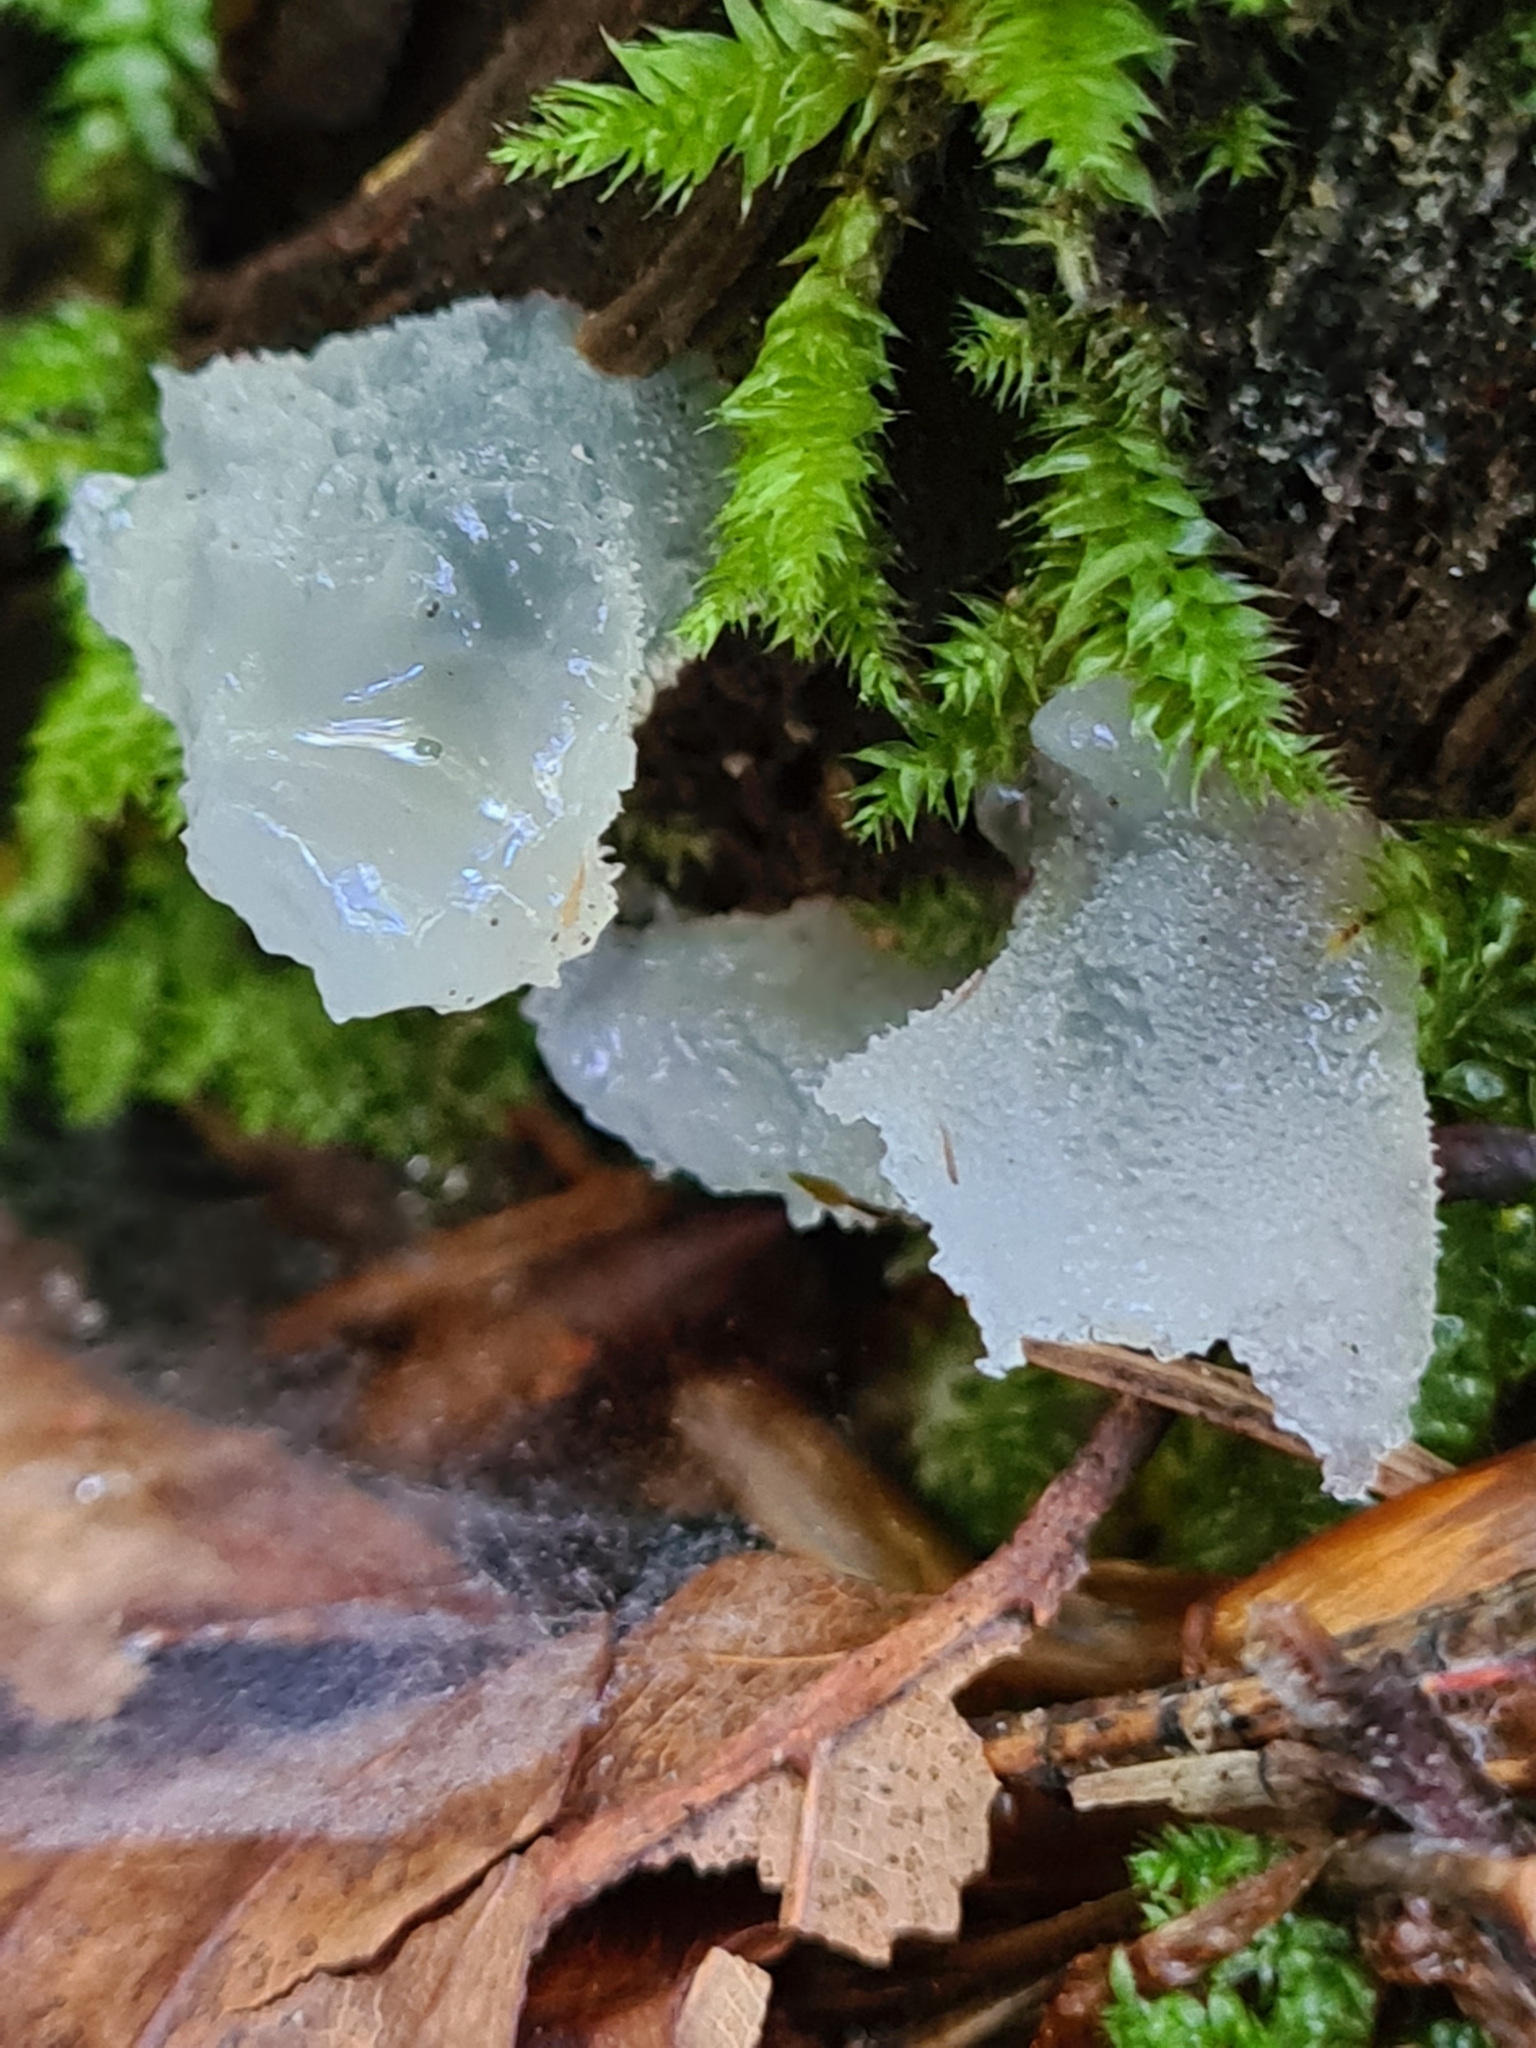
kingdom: Fungi
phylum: Basidiomycota
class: Agaricomycetes
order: Auriculariales
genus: Pseudohydnum
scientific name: Pseudohydnum gelatinosum
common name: Jelly tongue
